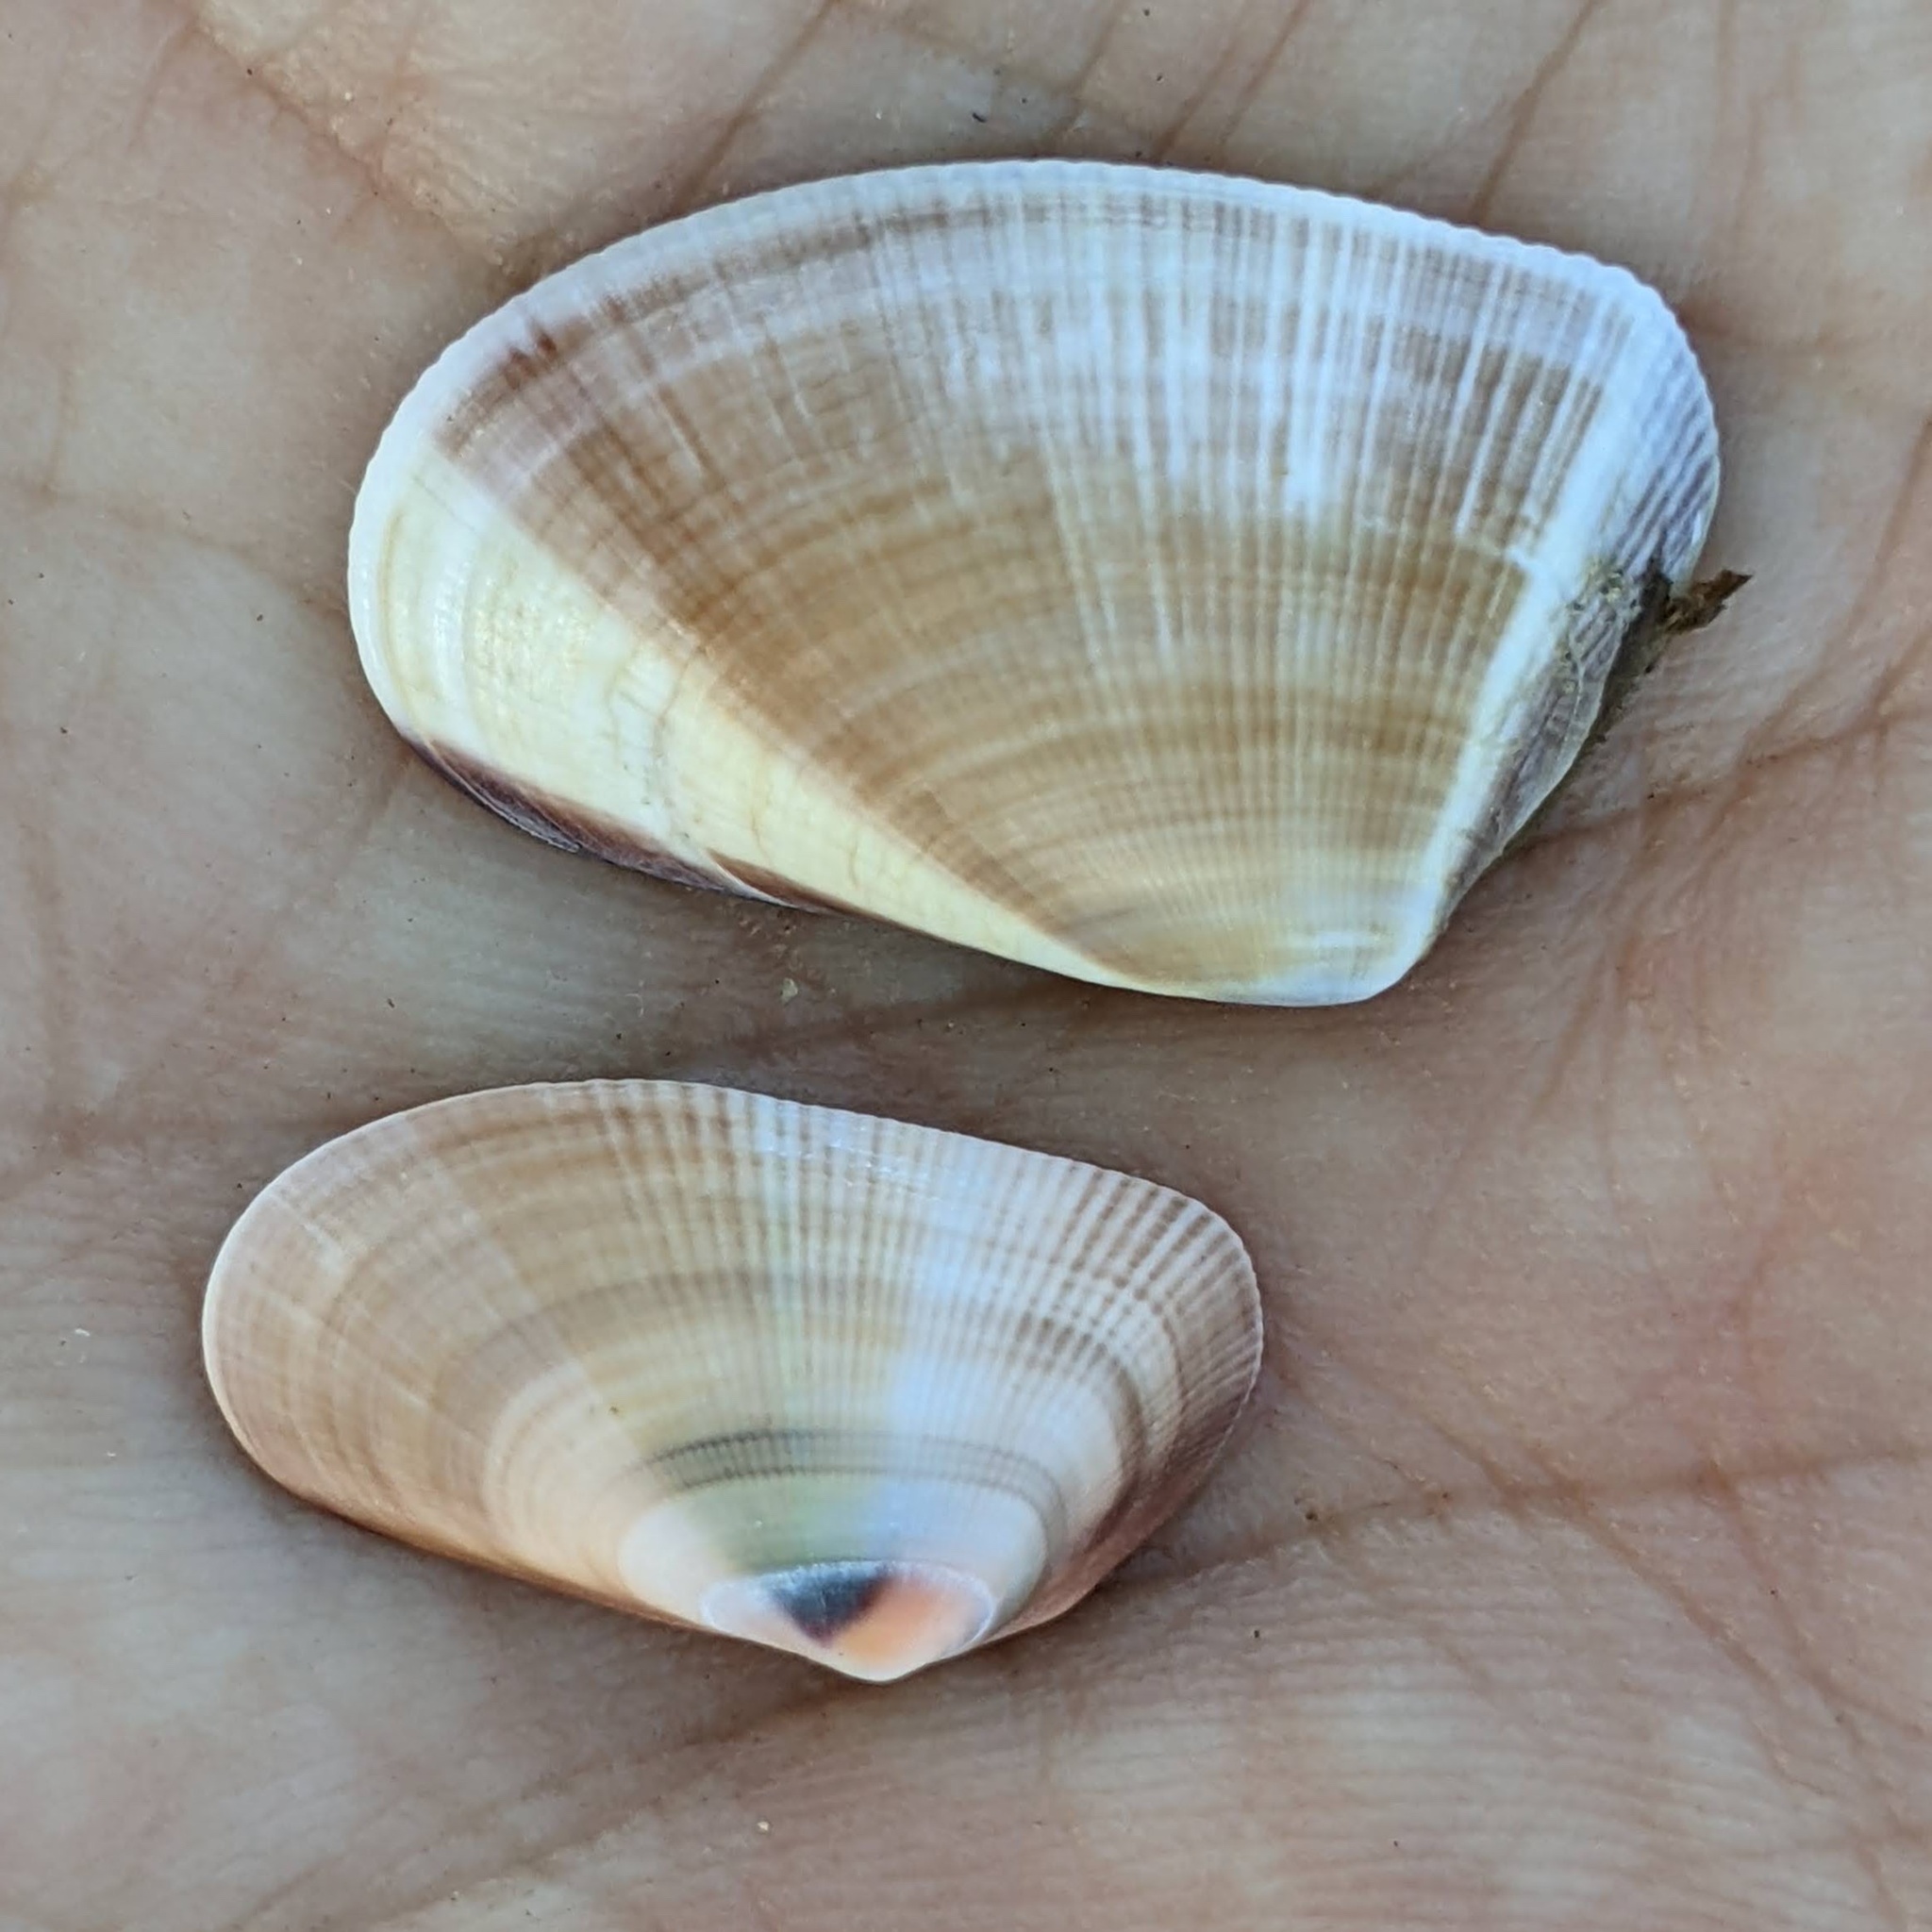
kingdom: Animalia
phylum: Mollusca
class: Bivalvia
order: Cardiida
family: Donacidae
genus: Donax
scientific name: Donax gouldii
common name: Gould beanclam
